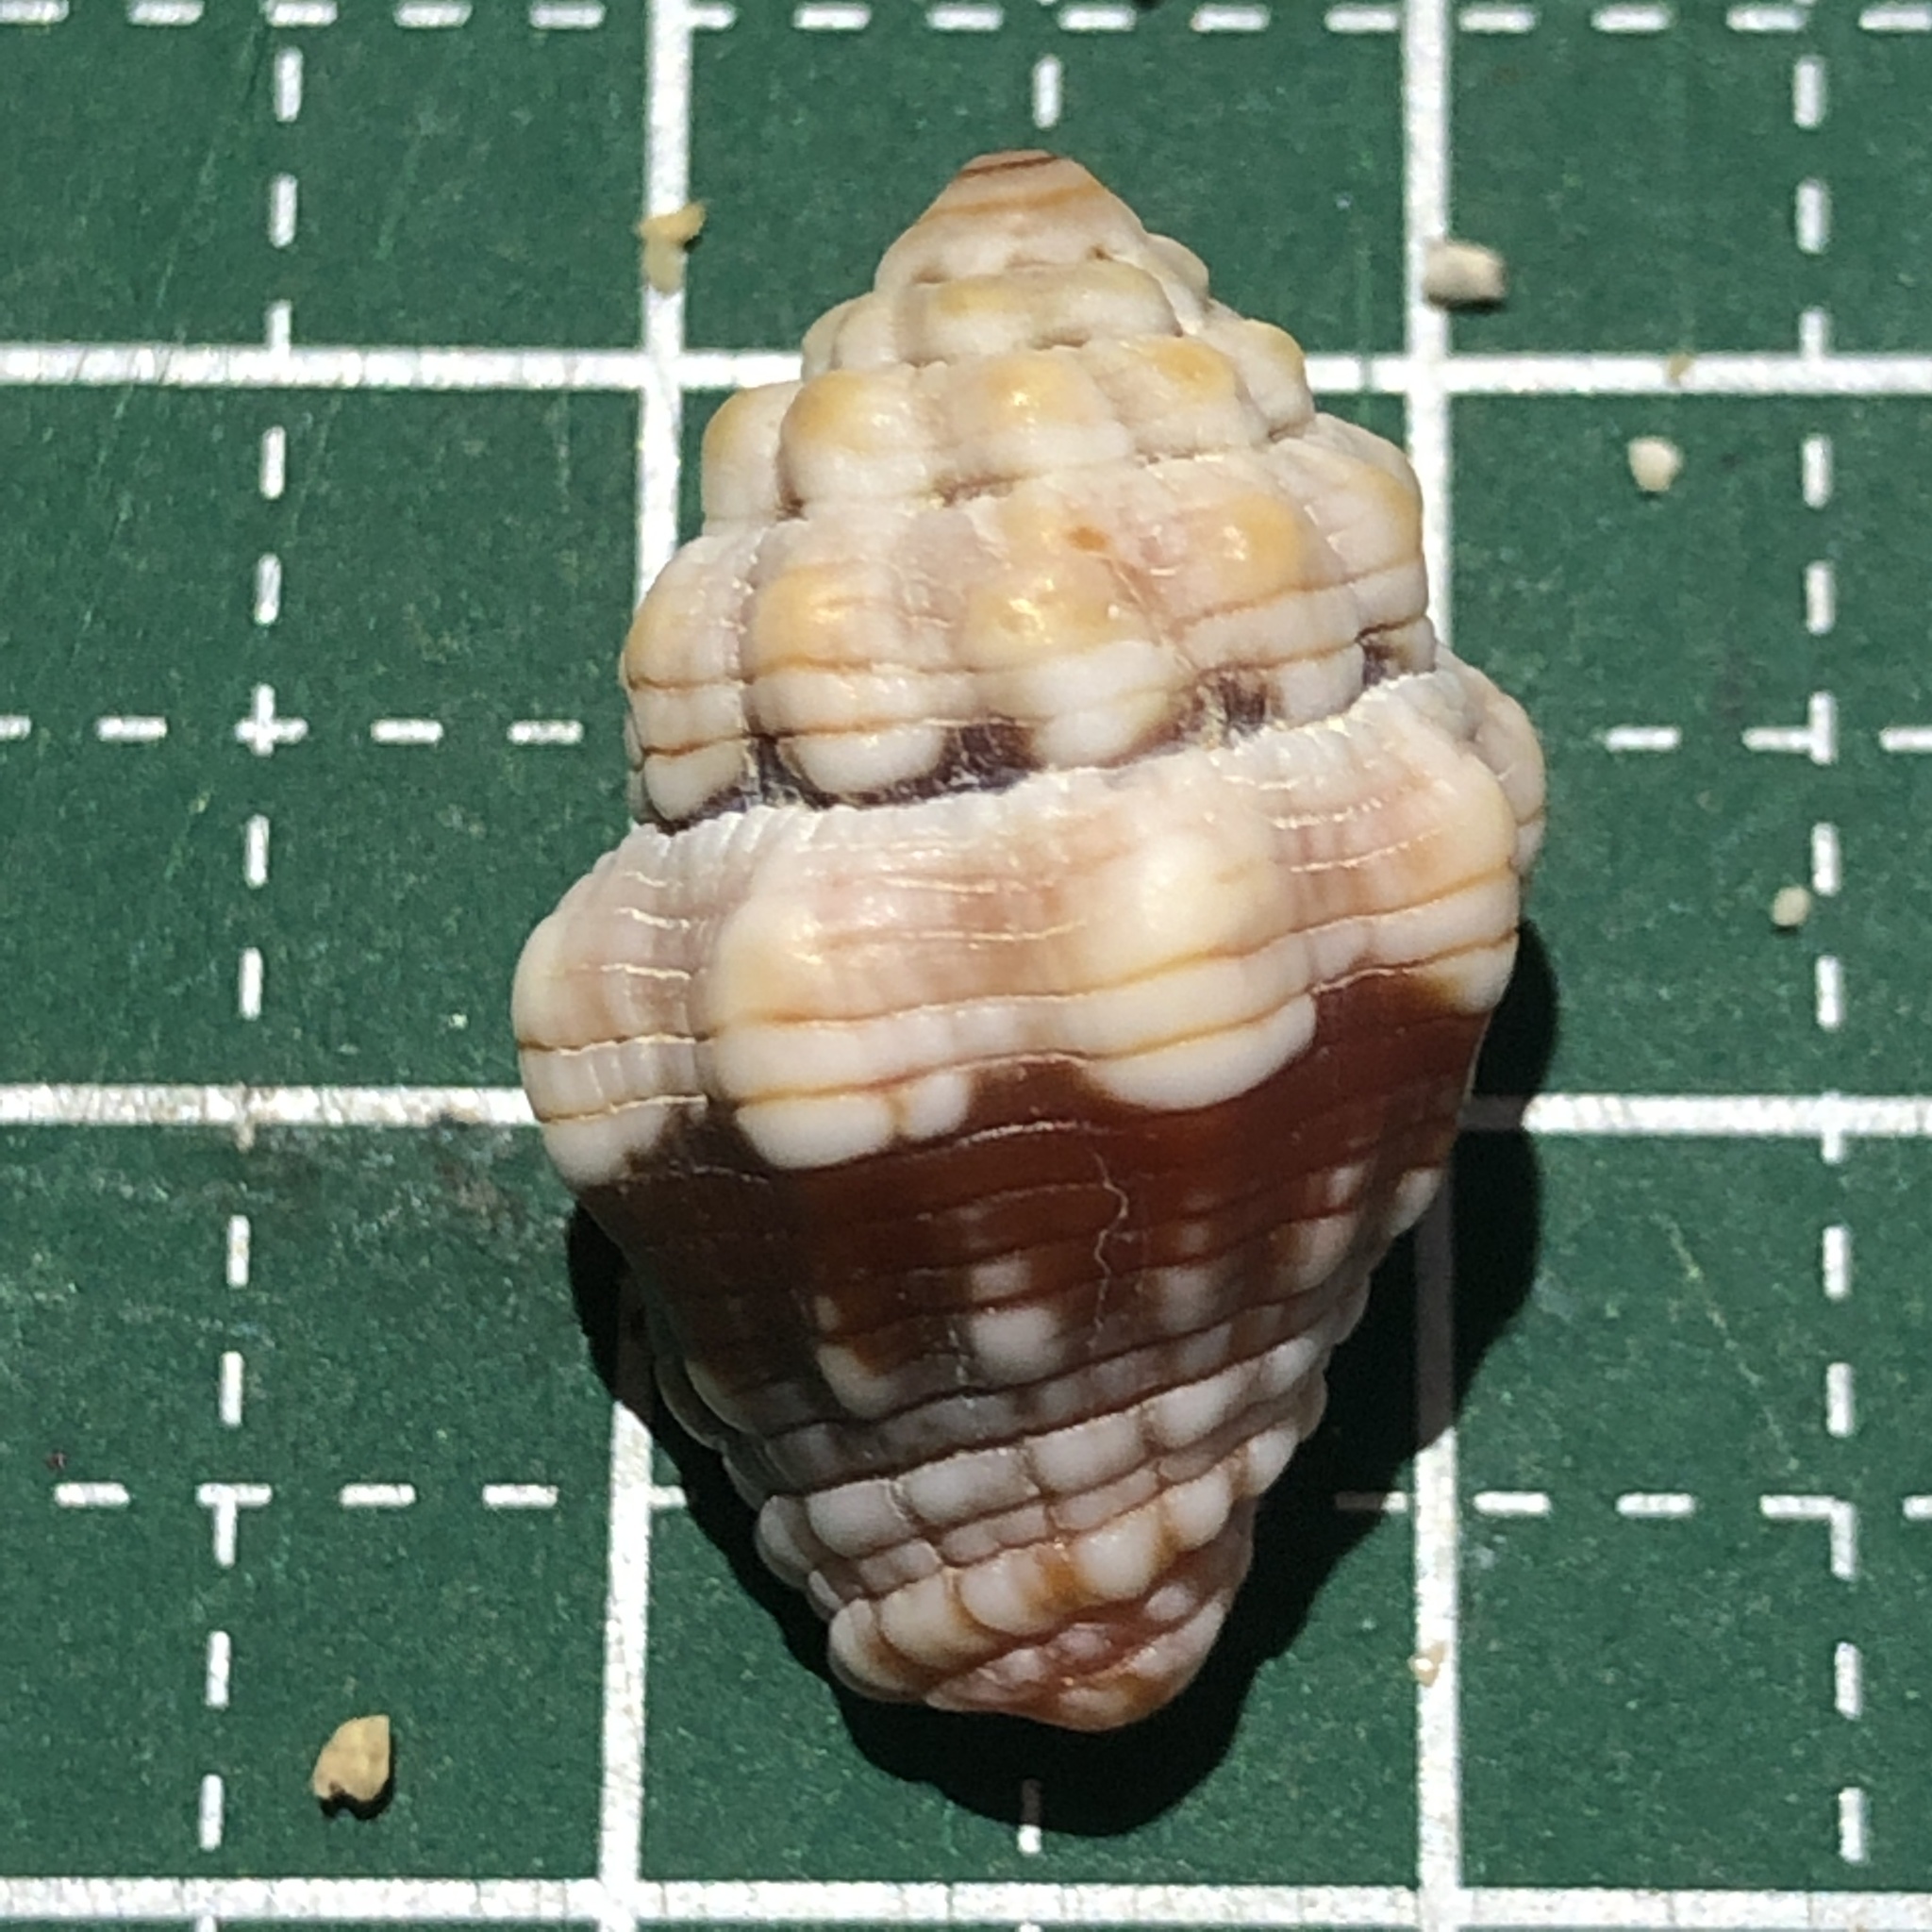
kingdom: Animalia
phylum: Mollusca
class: Gastropoda
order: Neogastropoda
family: Costellariidae
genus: Orphanopusia
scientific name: Orphanopusia patriarchalis
